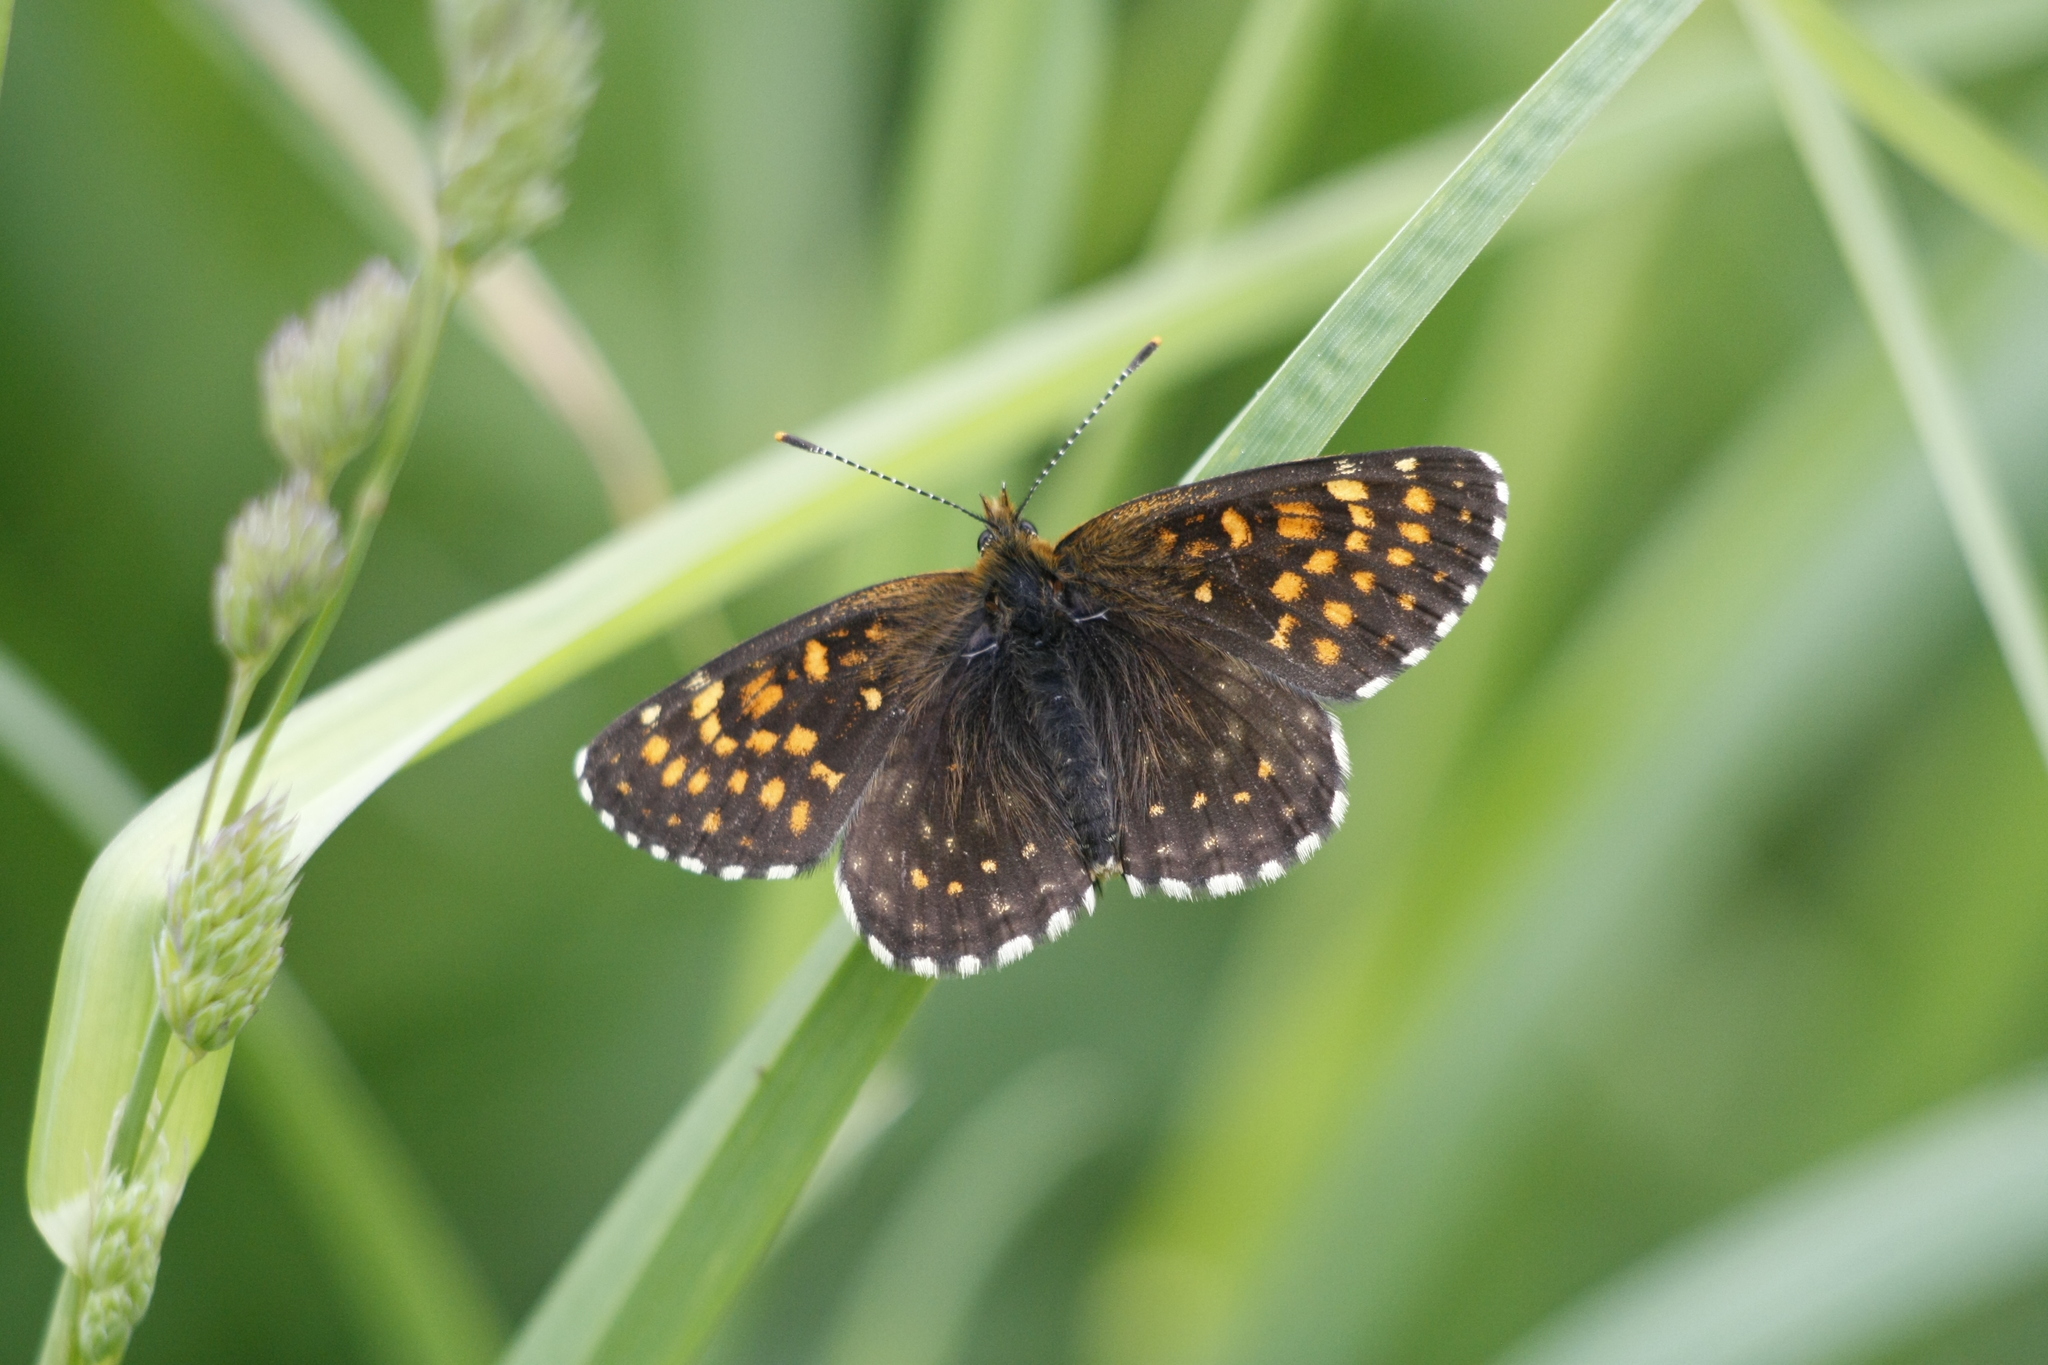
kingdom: Animalia
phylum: Arthropoda
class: Insecta
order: Lepidoptera
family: Nymphalidae
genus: Melitaea
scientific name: Melitaea diamina
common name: False heath fritillary
